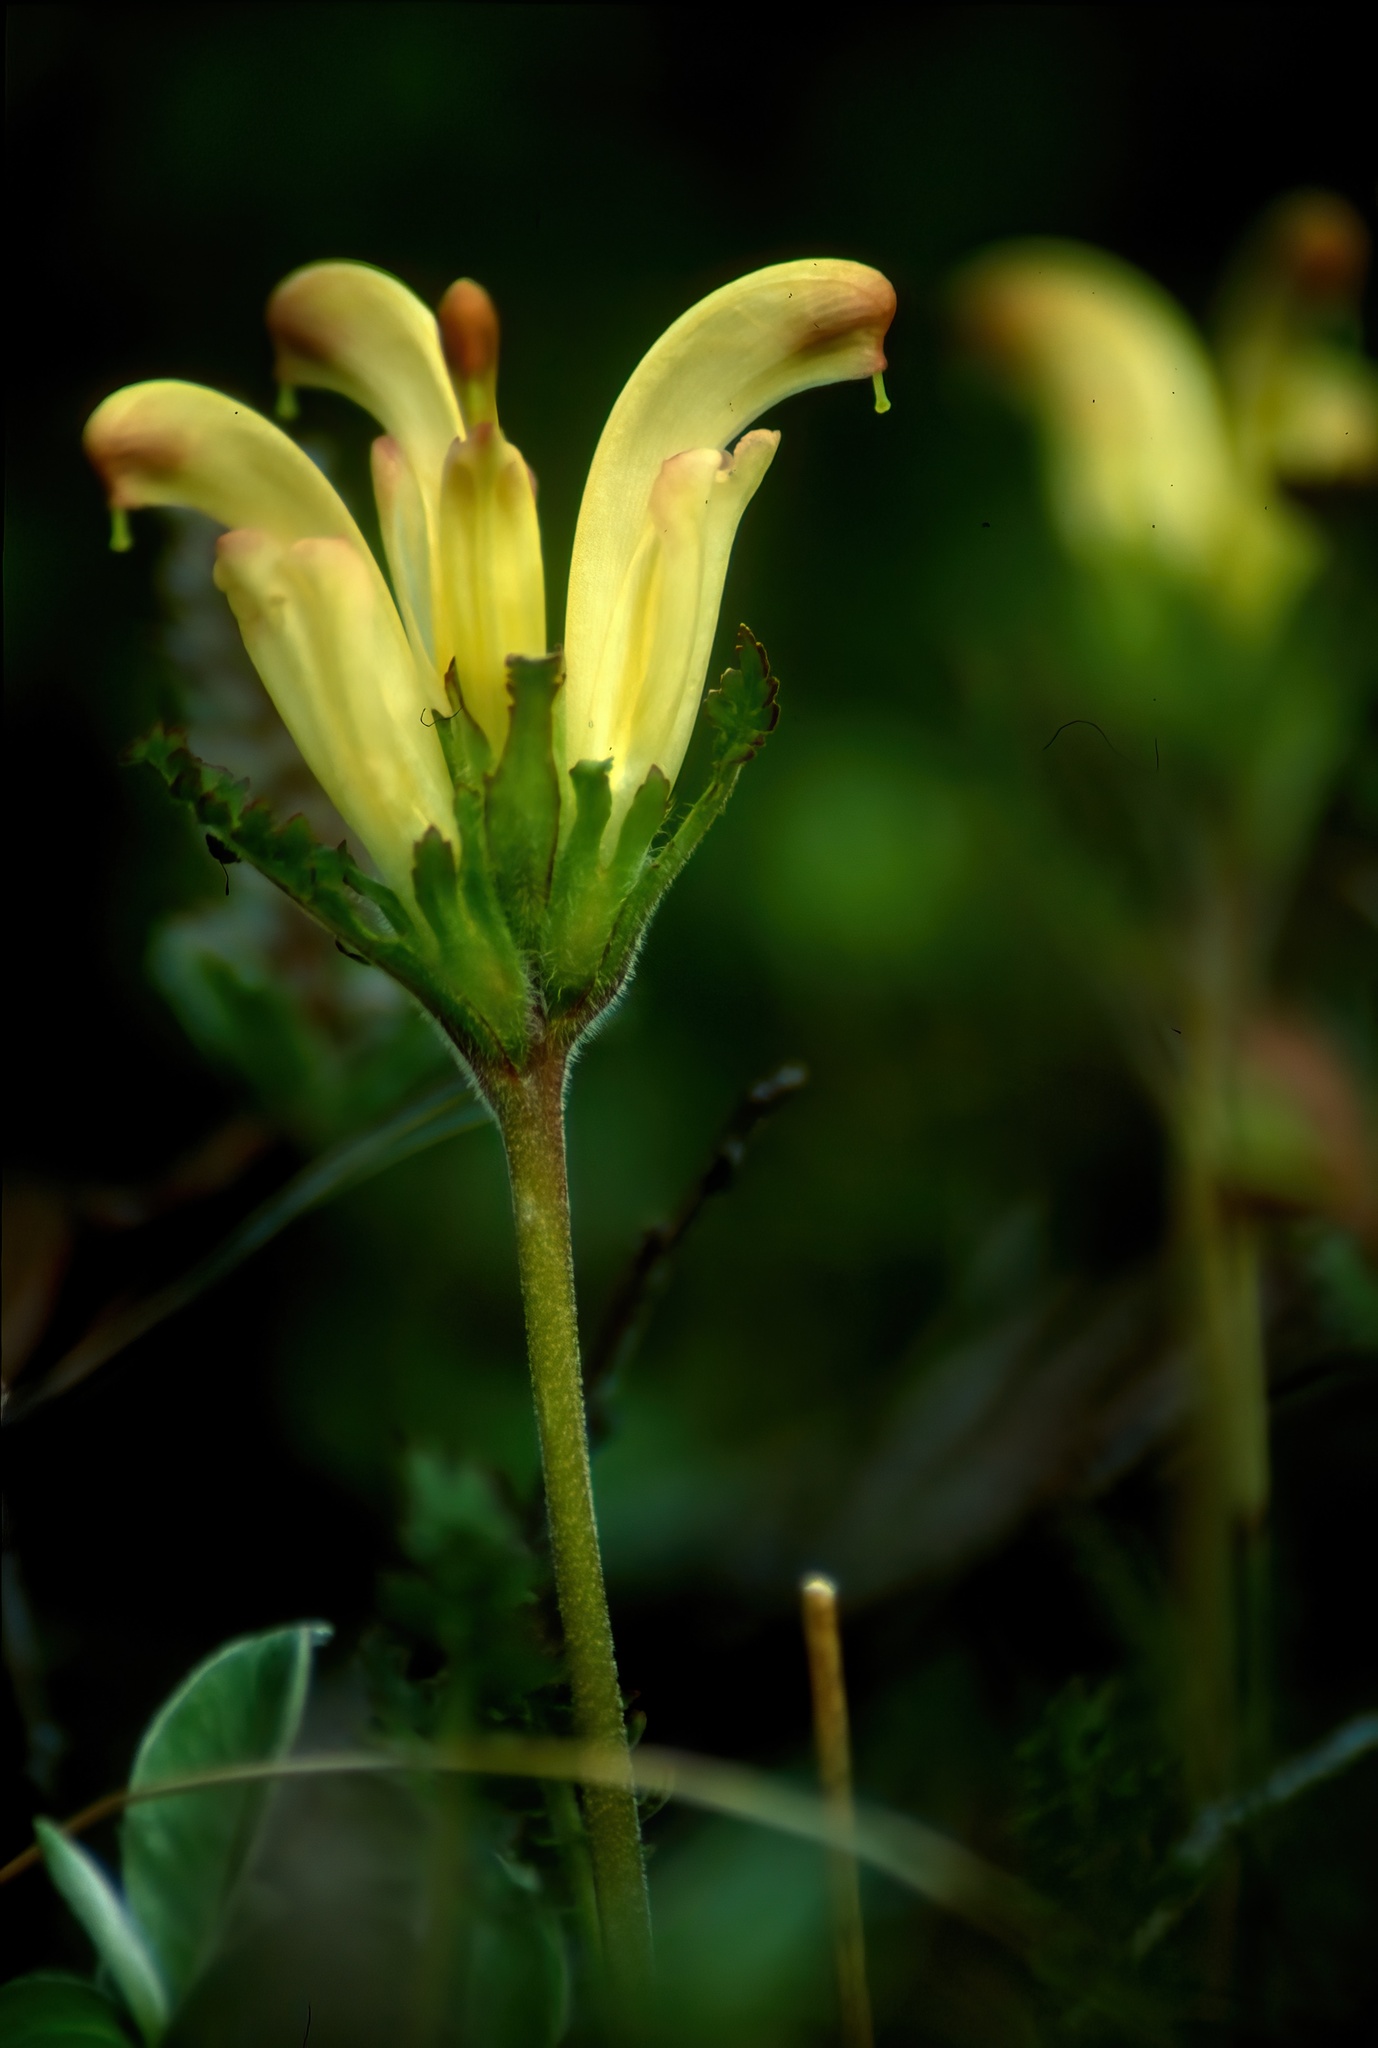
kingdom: Plantae
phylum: Tracheophyta
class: Magnoliopsida
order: Lamiales
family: Orobanchaceae
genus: Pedicularis
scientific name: Pedicularis capitata
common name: Capitate lousewort
